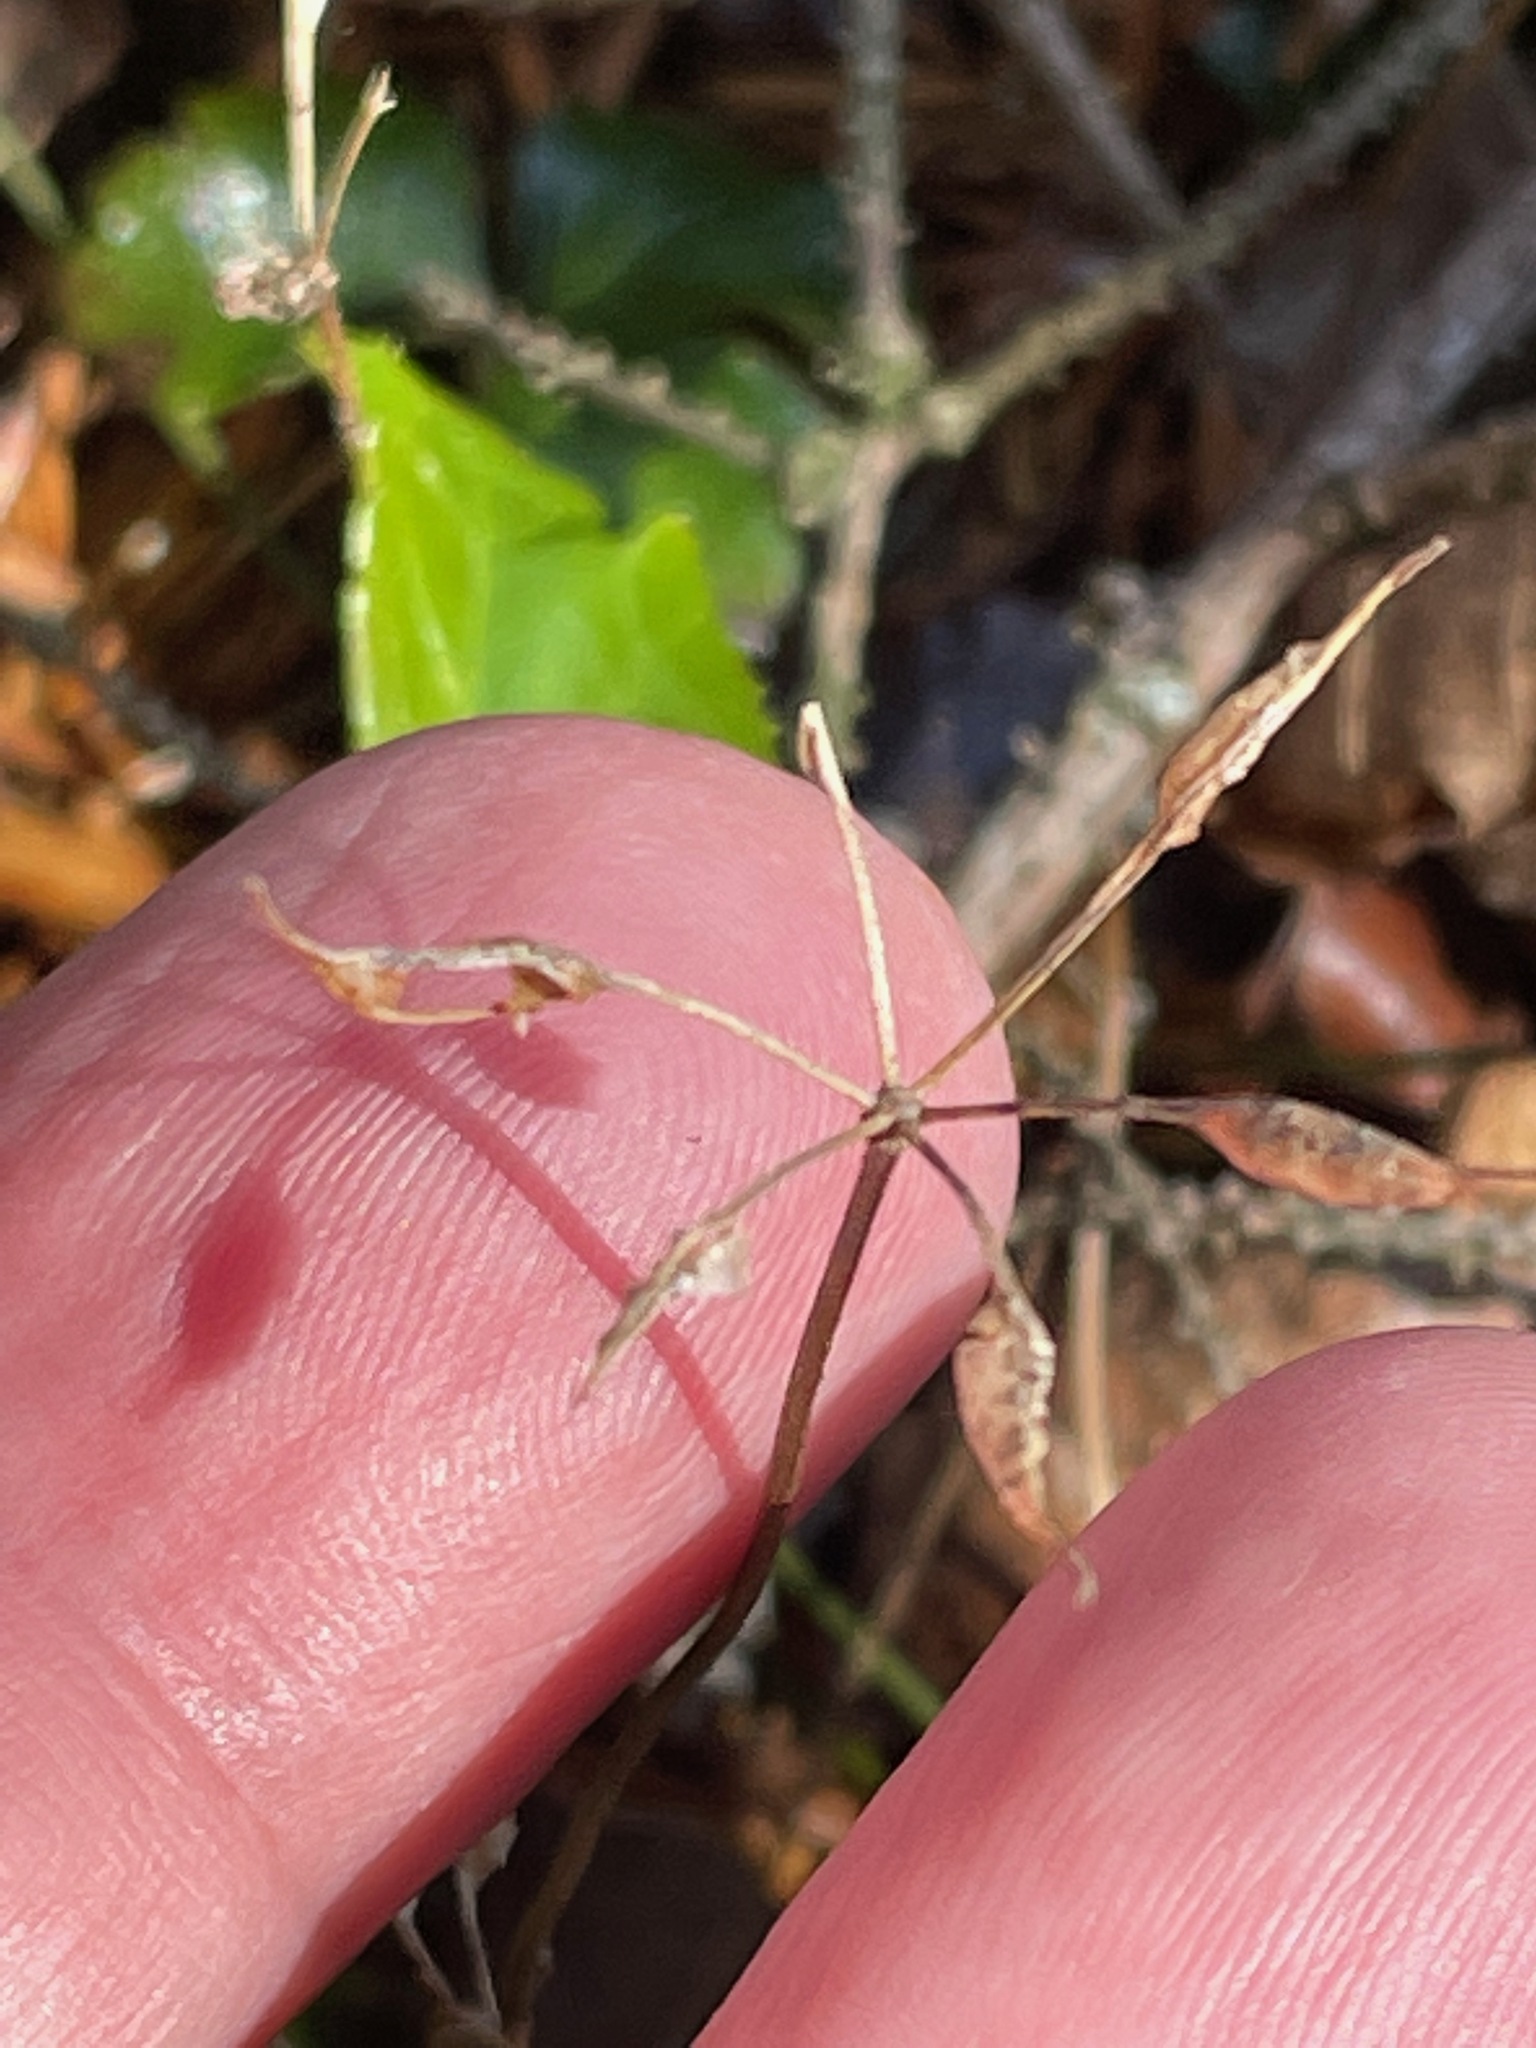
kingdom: Plantae
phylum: Tracheophyta
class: Magnoliopsida
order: Ranunculales
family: Ranunculaceae
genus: Coptis
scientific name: Coptis trifolia
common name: Canker-root
